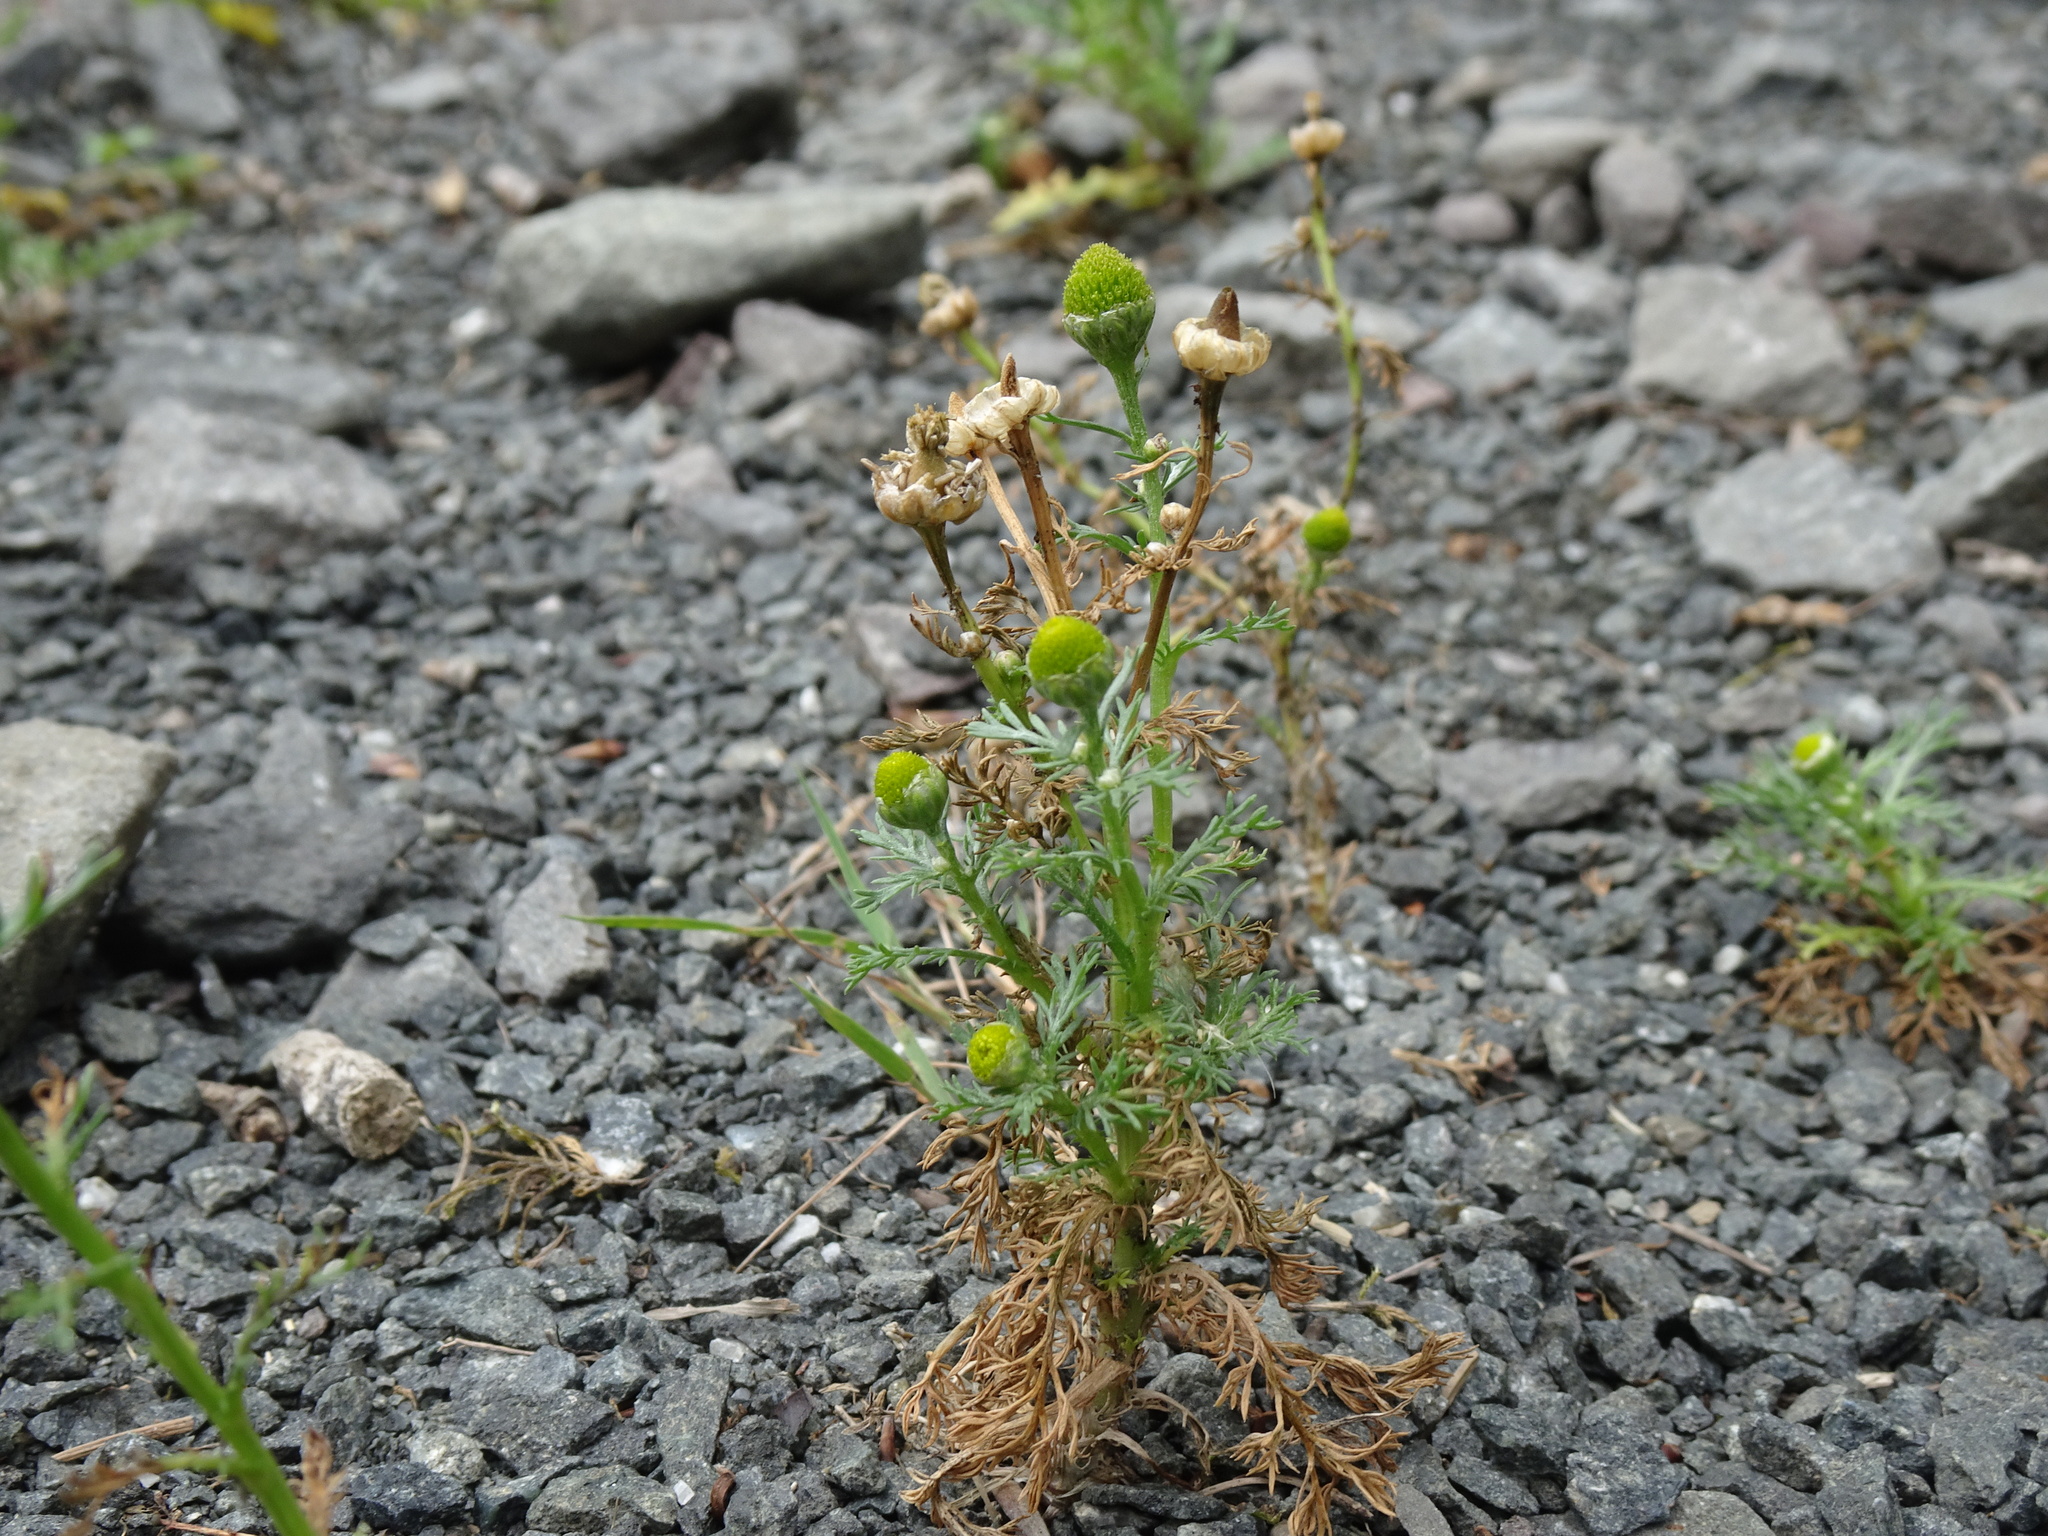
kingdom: Plantae
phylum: Tracheophyta
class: Magnoliopsida
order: Asterales
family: Asteraceae
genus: Matricaria
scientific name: Matricaria discoidea
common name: Disc mayweed
